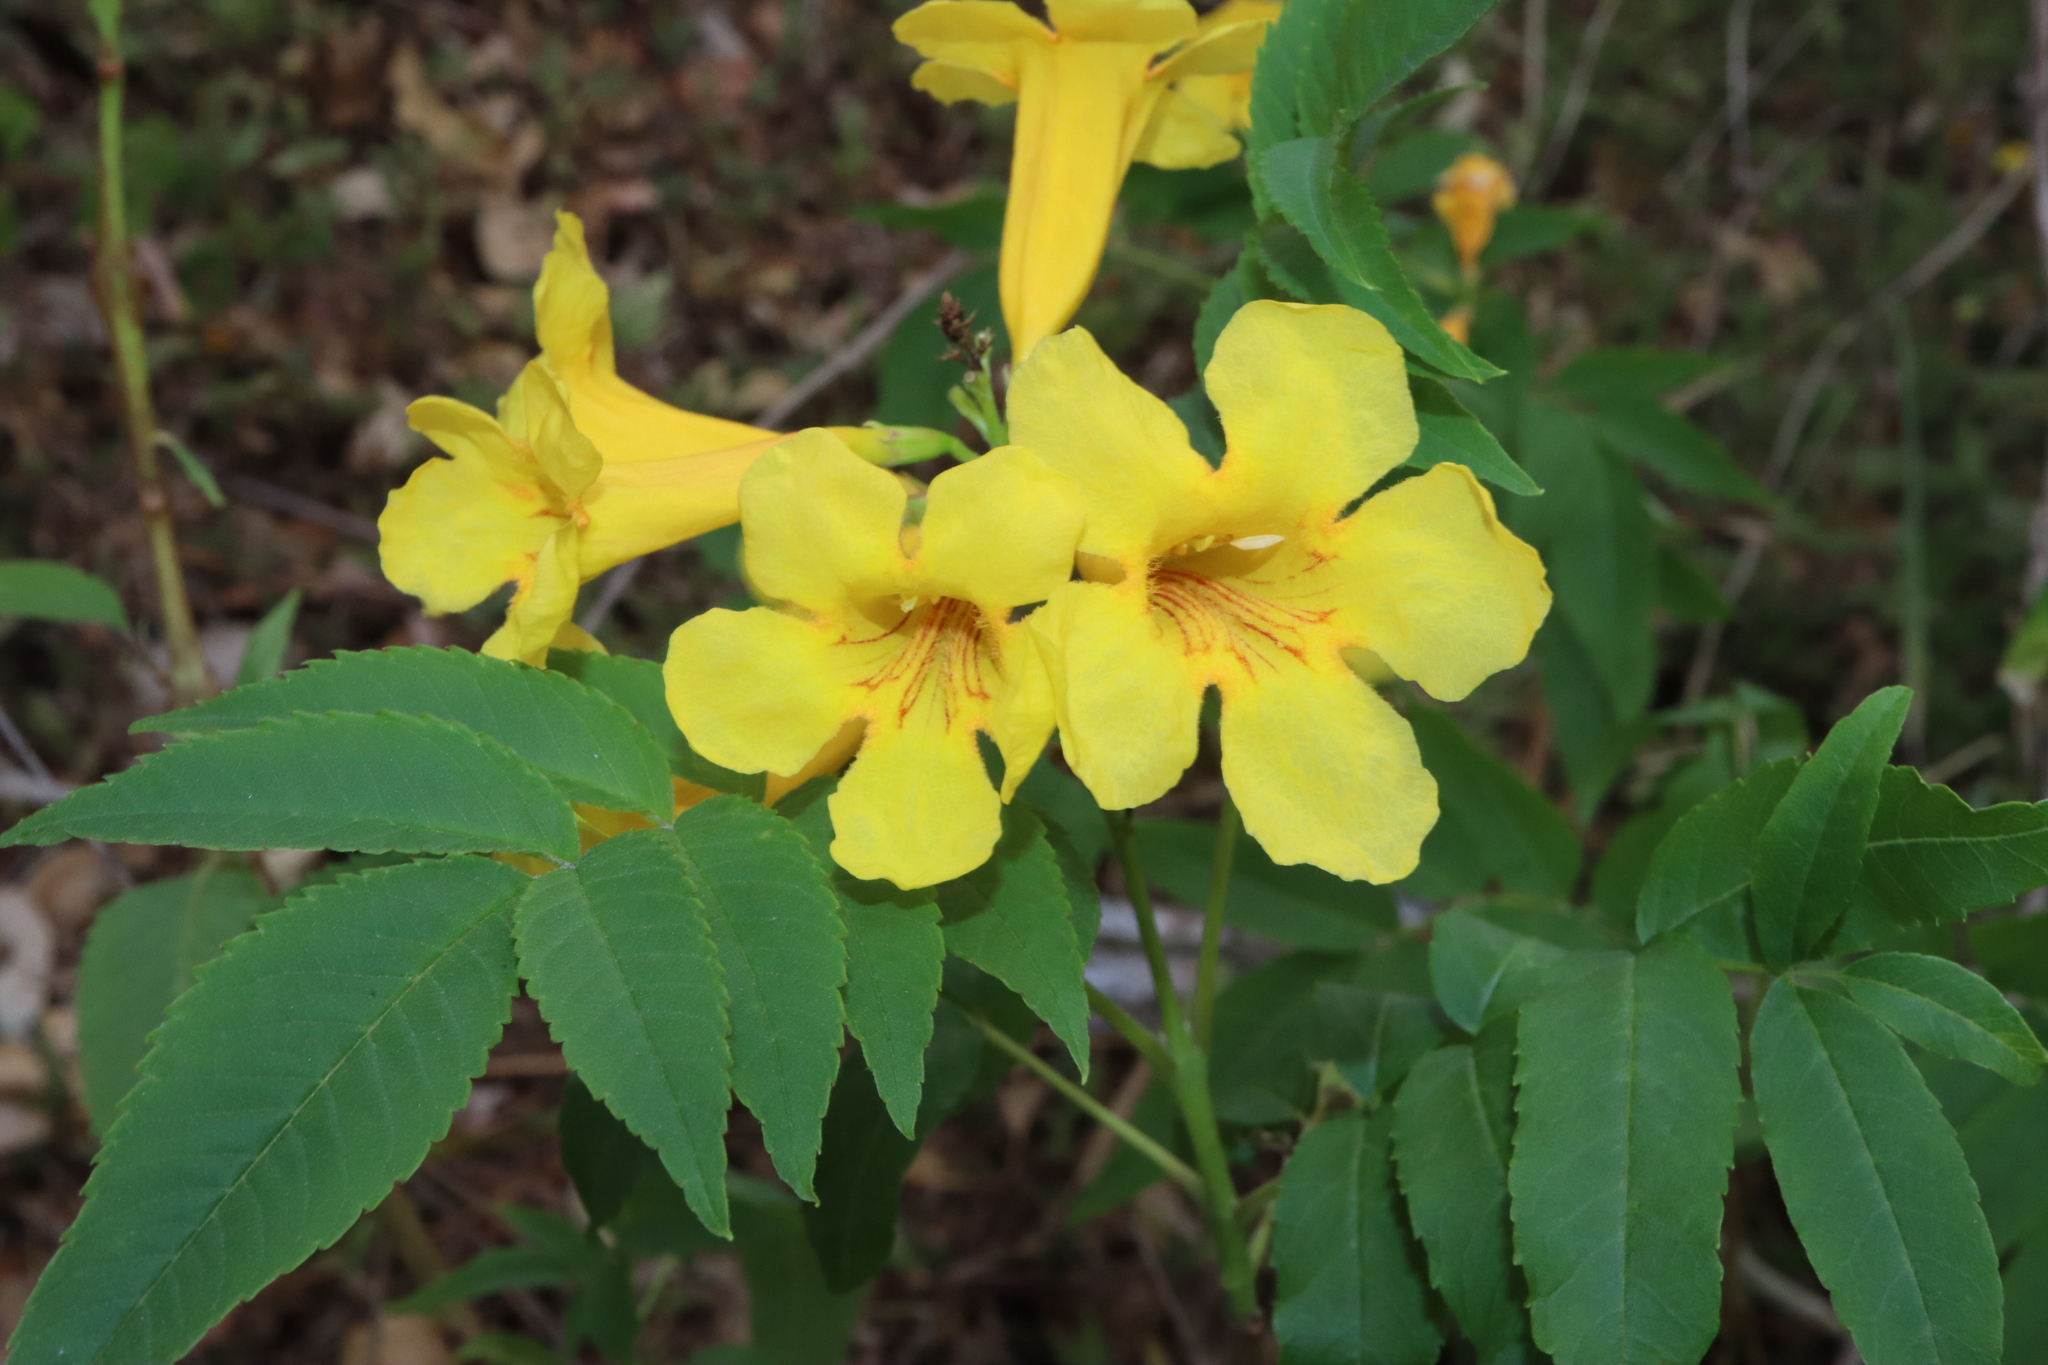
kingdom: Plantae
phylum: Tracheophyta
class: Magnoliopsida
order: Lamiales
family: Bignoniaceae
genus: Tecoma
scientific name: Tecoma stans
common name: Yellow trumpetbush
